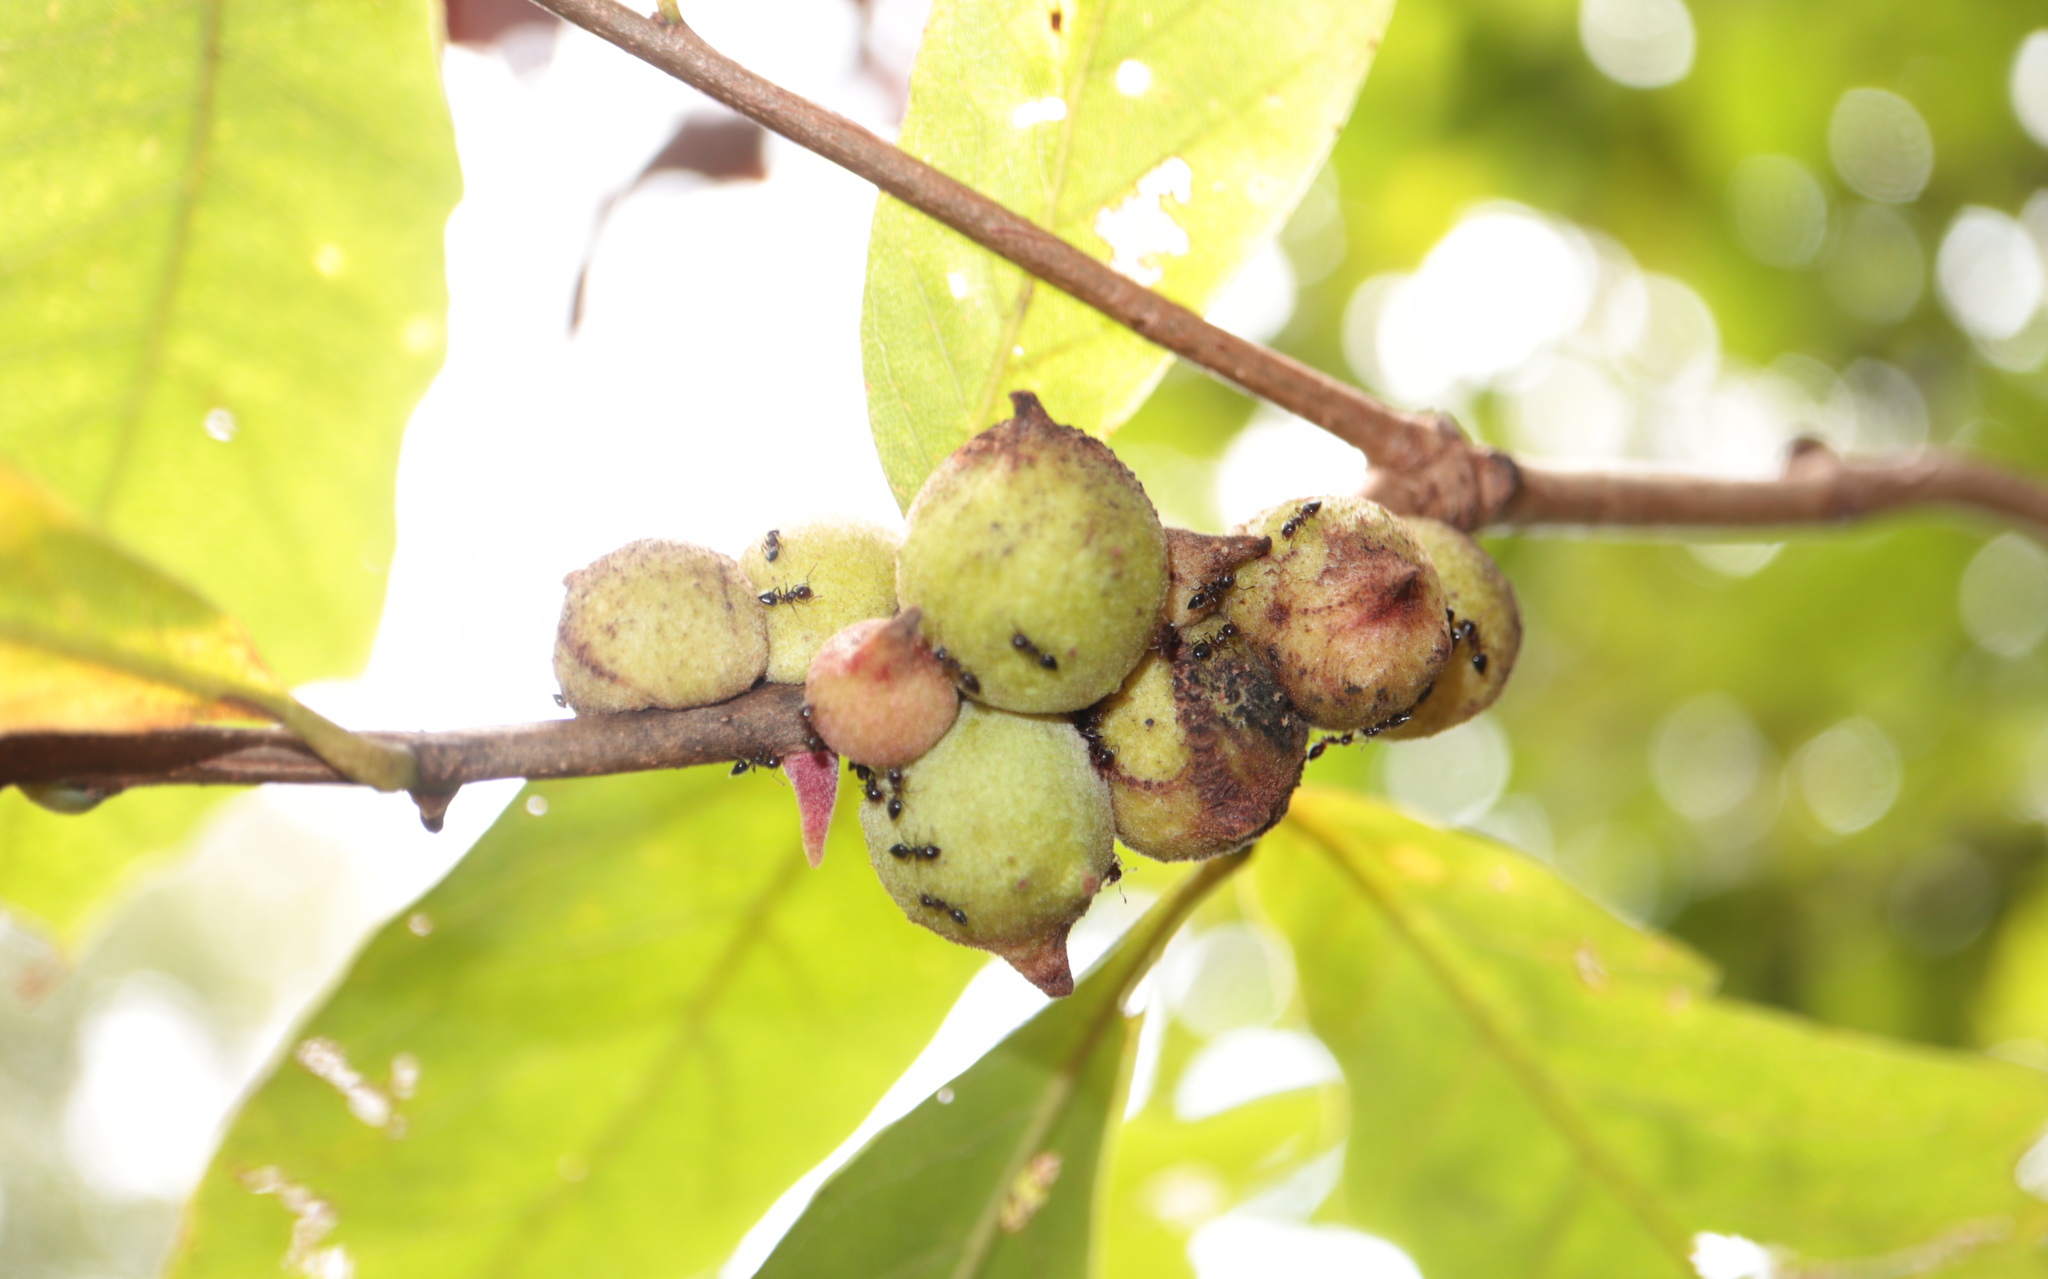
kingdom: Animalia
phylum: Arthropoda
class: Insecta
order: Hymenoptera
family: Cynipidae
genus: Disholcaspis
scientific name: Disholcaspis
